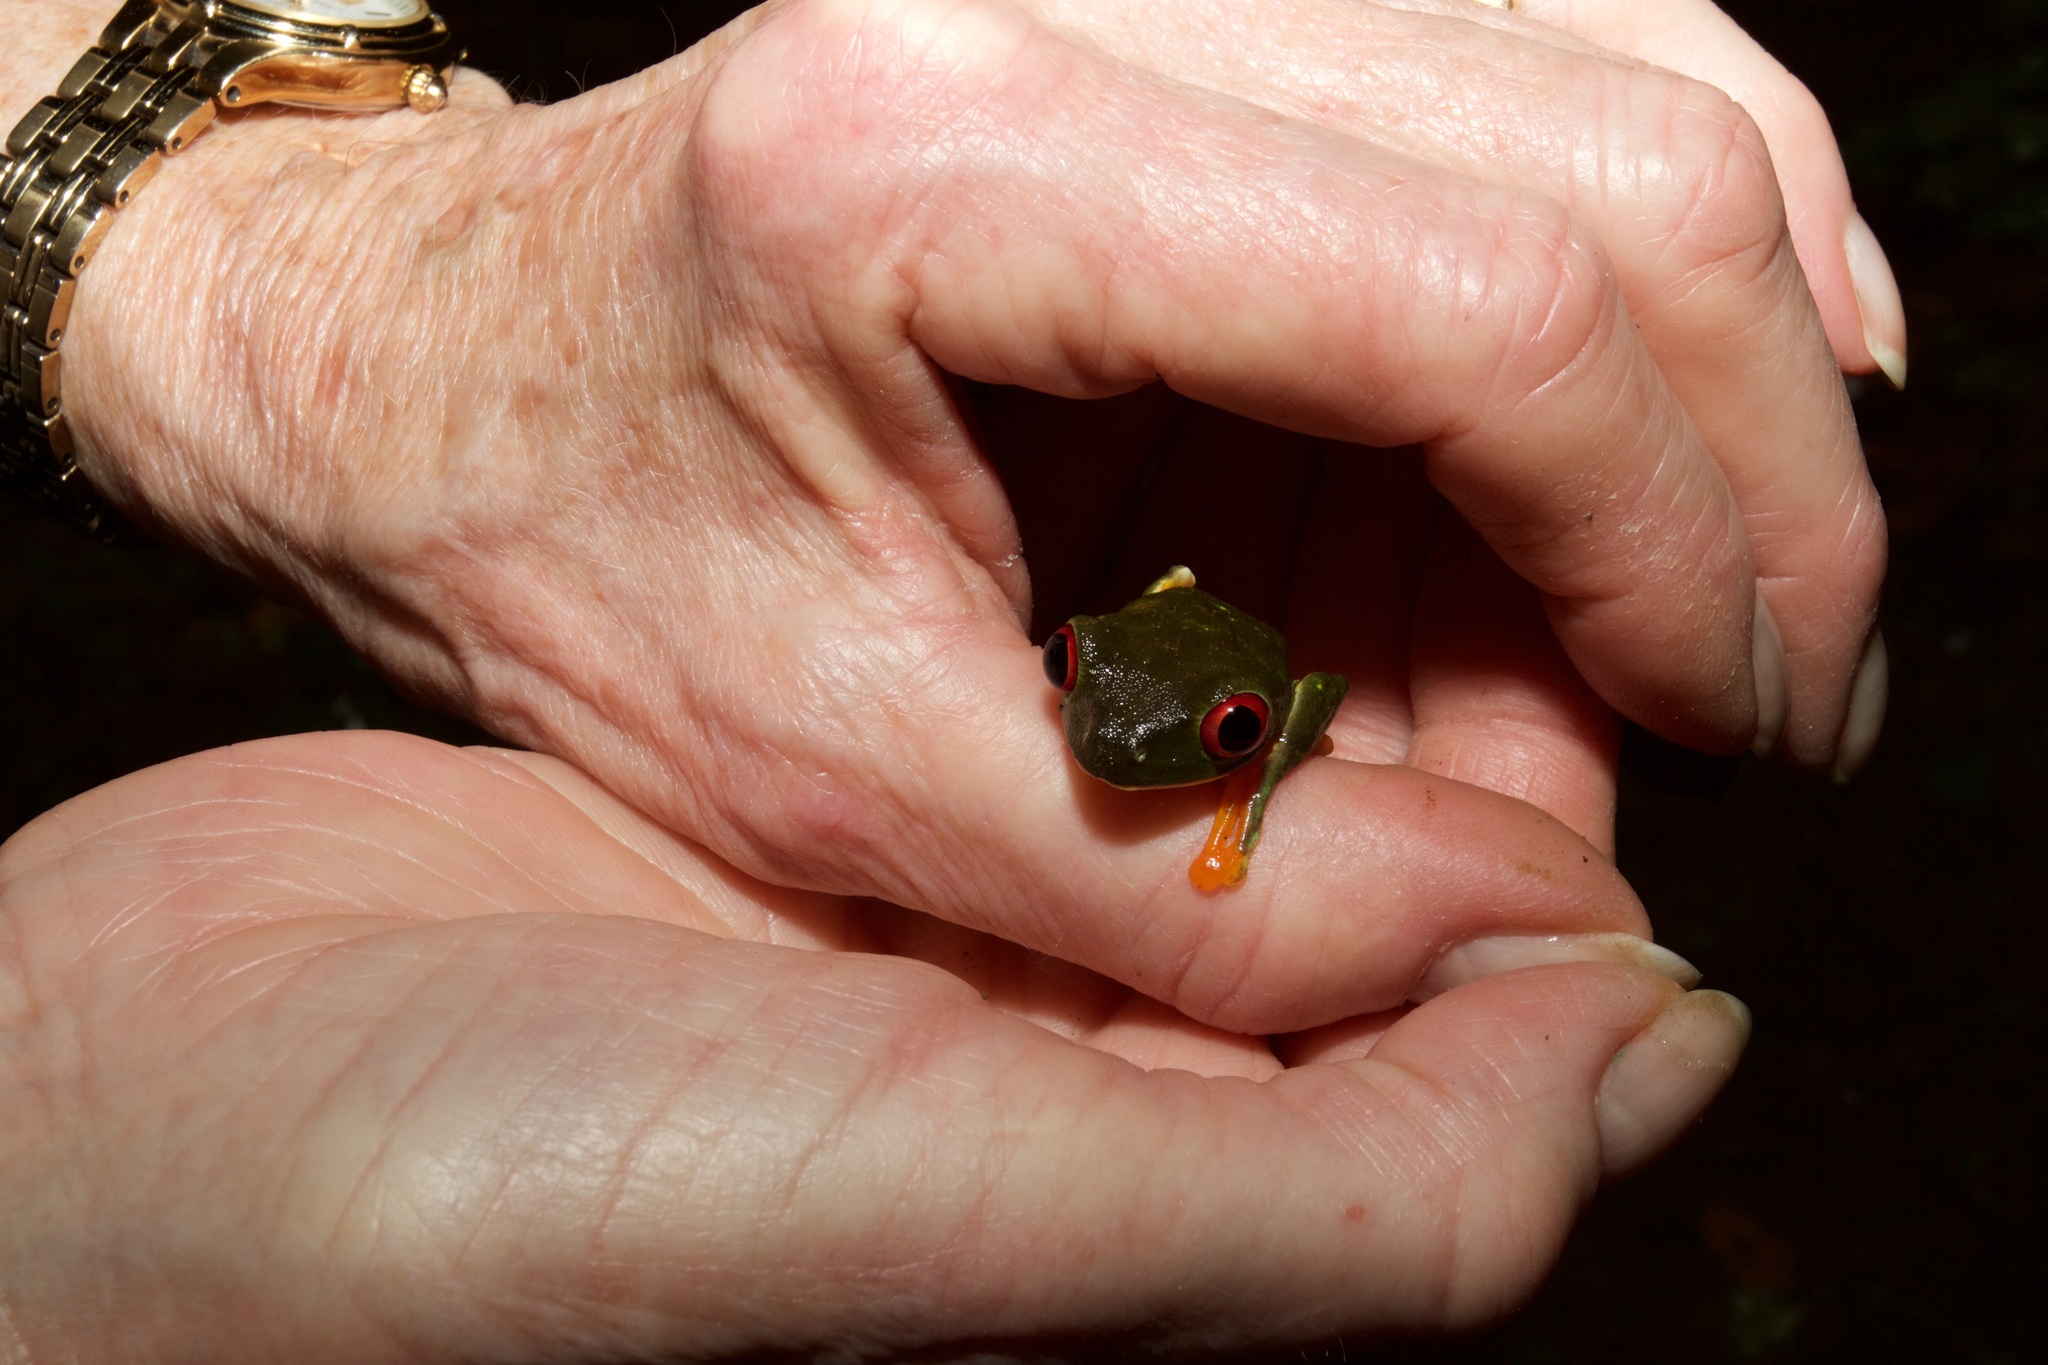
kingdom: Animalia
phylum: Chordata
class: Amphibia
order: Anura
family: Phyllomedusidae
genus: Agalychnis
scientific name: Agalychnis callidryas
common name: Red-eyed treefrog
